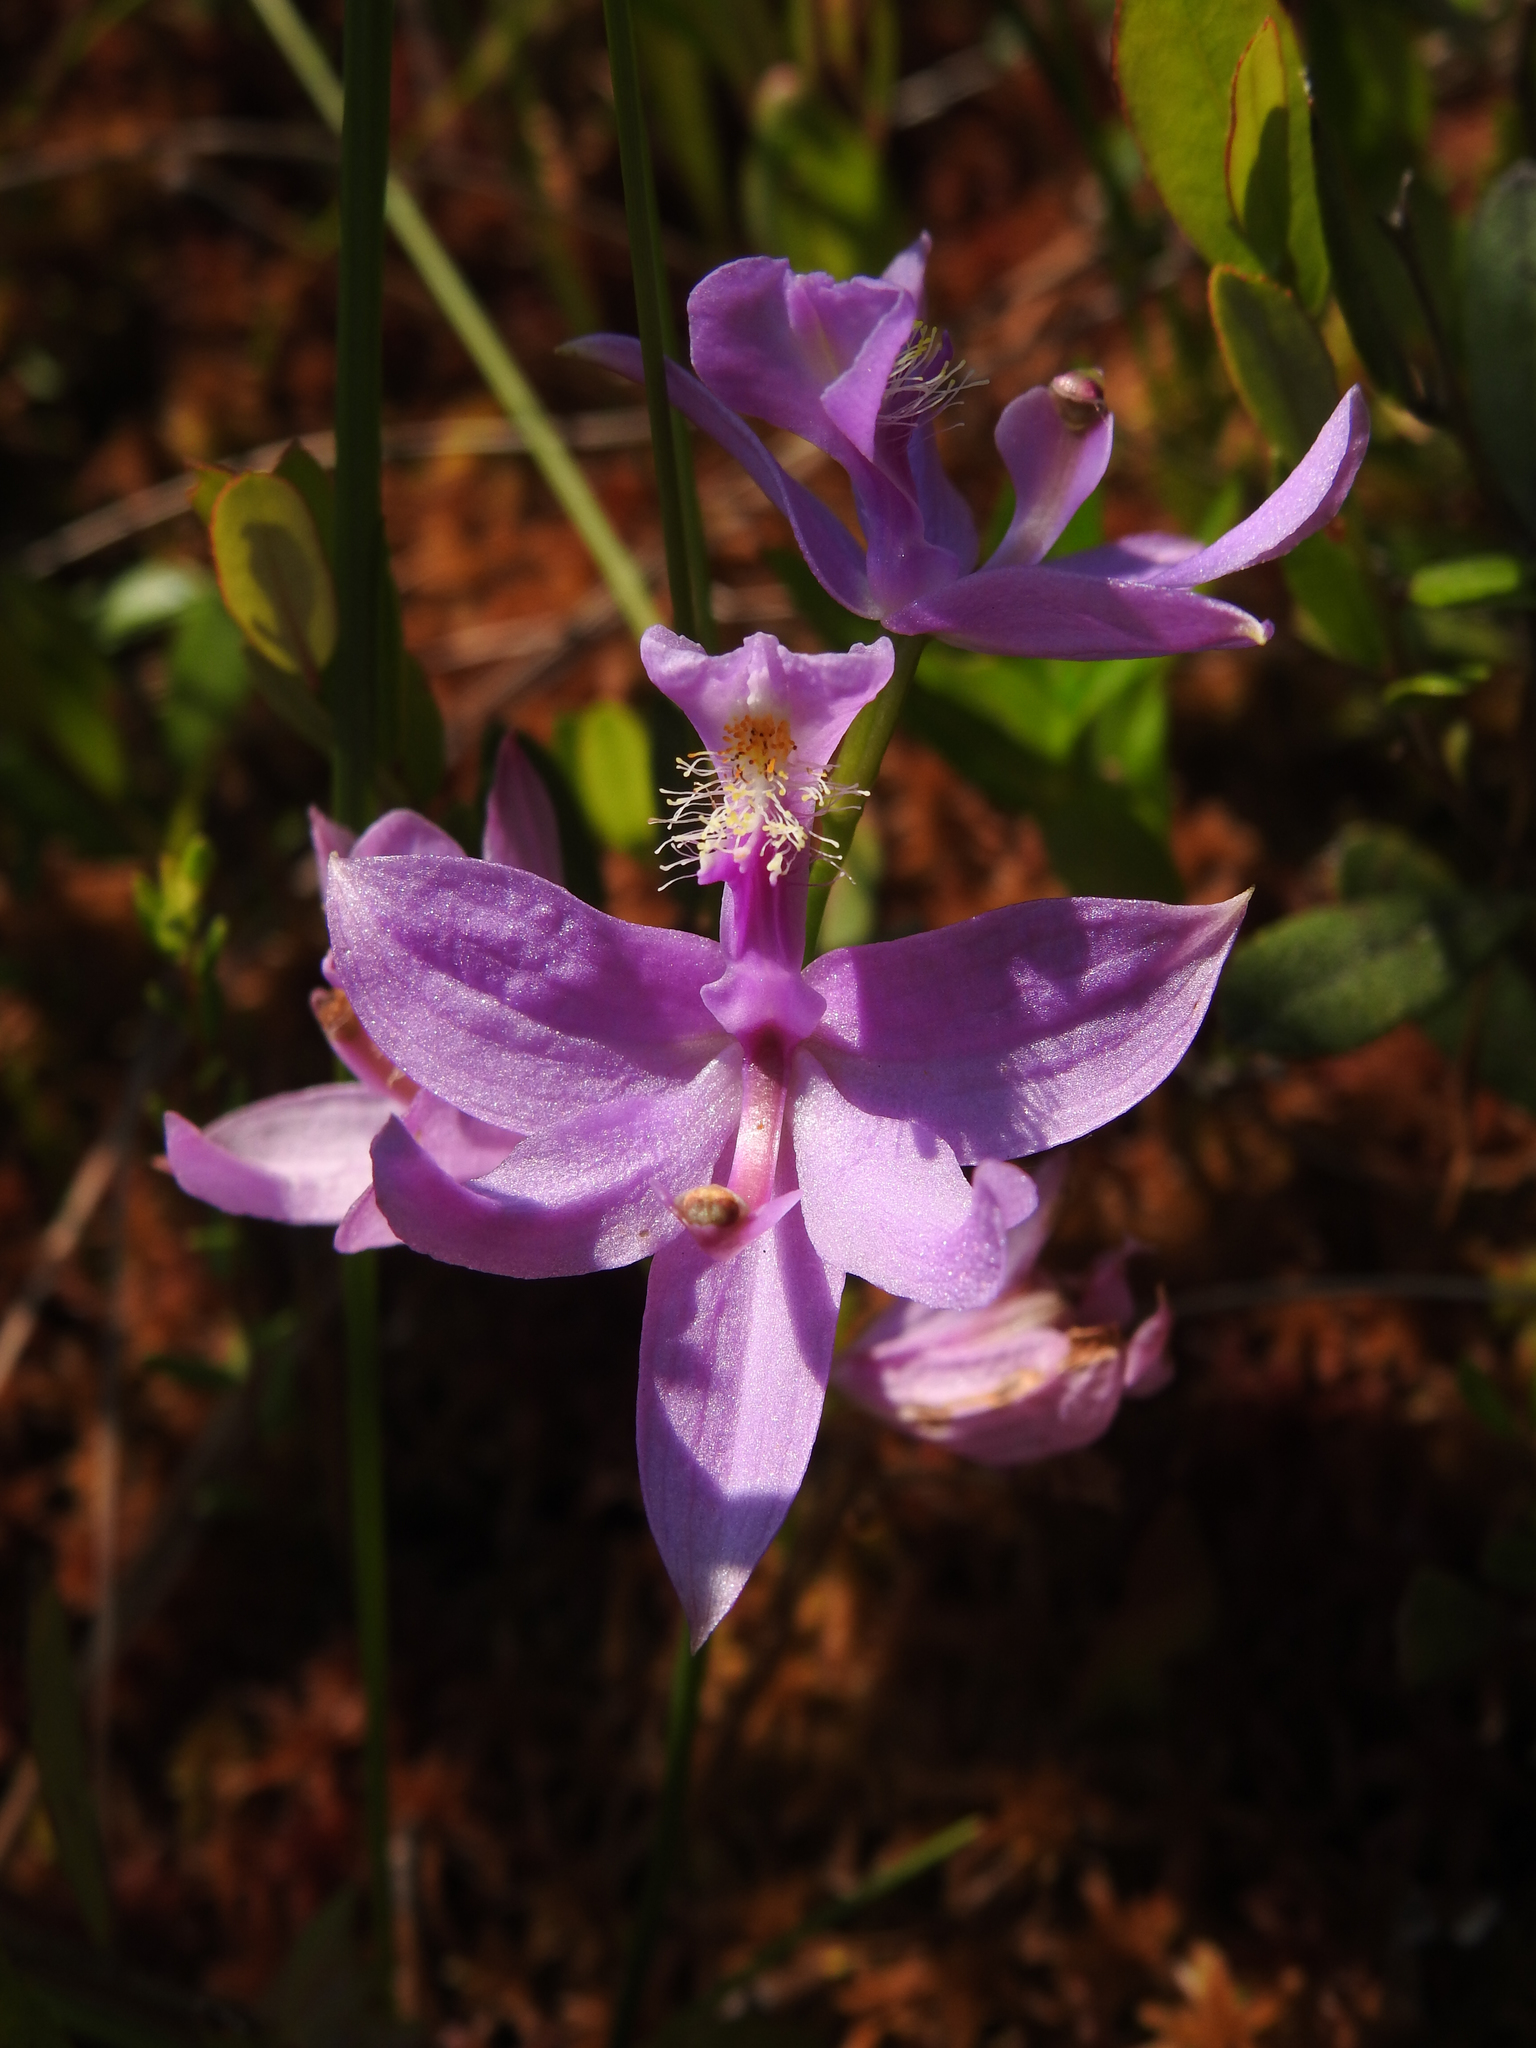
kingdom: Plantae
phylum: Tracheophyta
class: Liliopsida
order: Asparagales
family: Orchidaceae
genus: Calopogon
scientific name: Calopogon tuberosus
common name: Grass-pink
